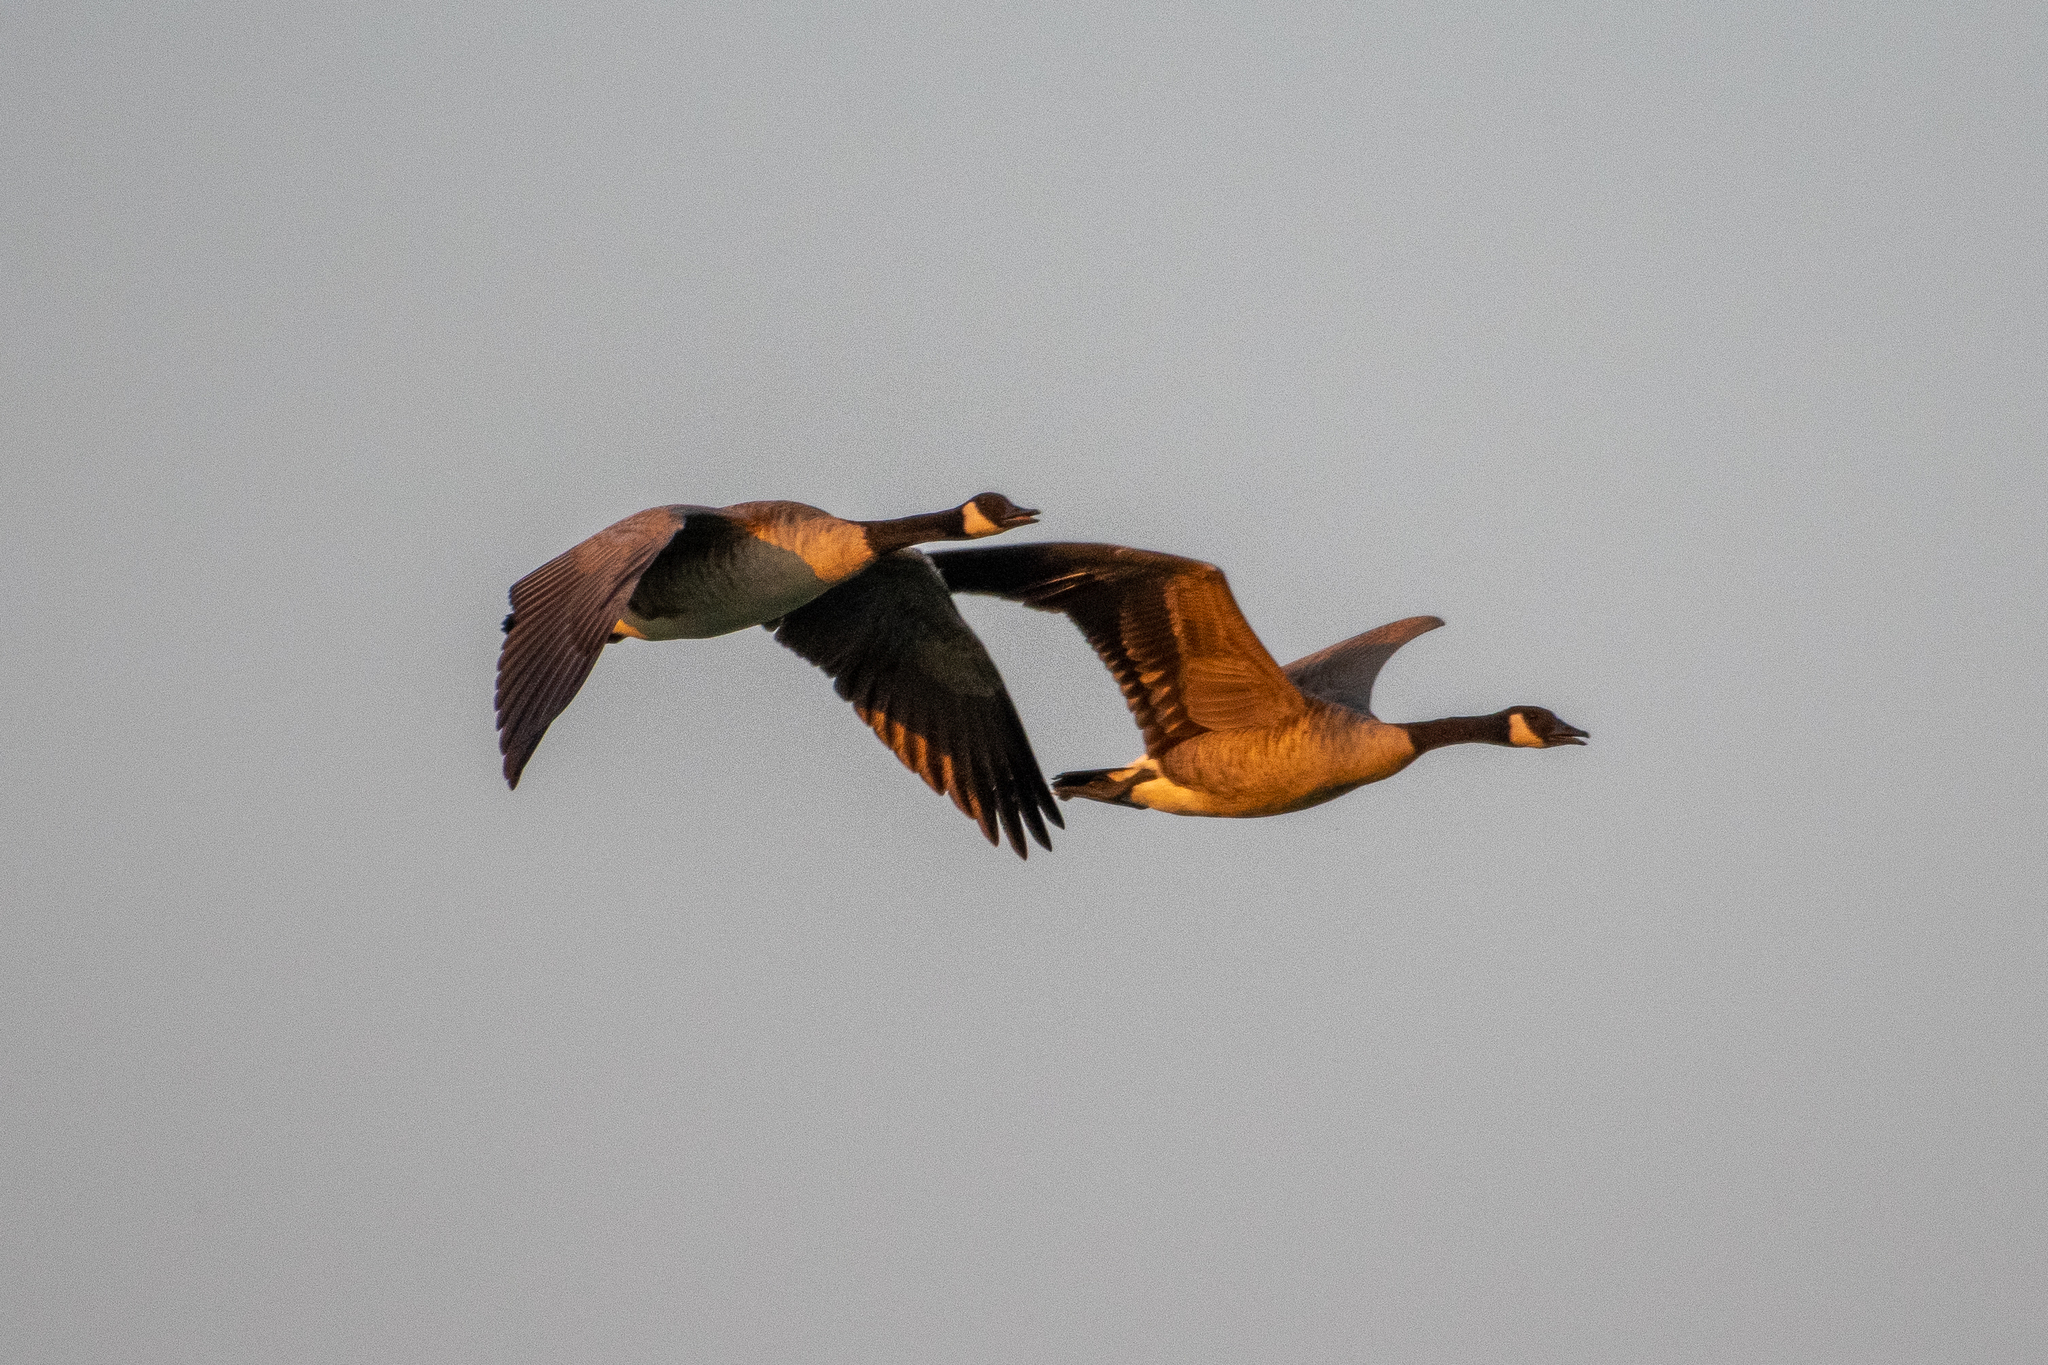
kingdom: Animalia
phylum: Chordata
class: Aves
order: Anseriformes
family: Anatidae
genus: Branta
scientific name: Branta canadensis
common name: Canada goose
